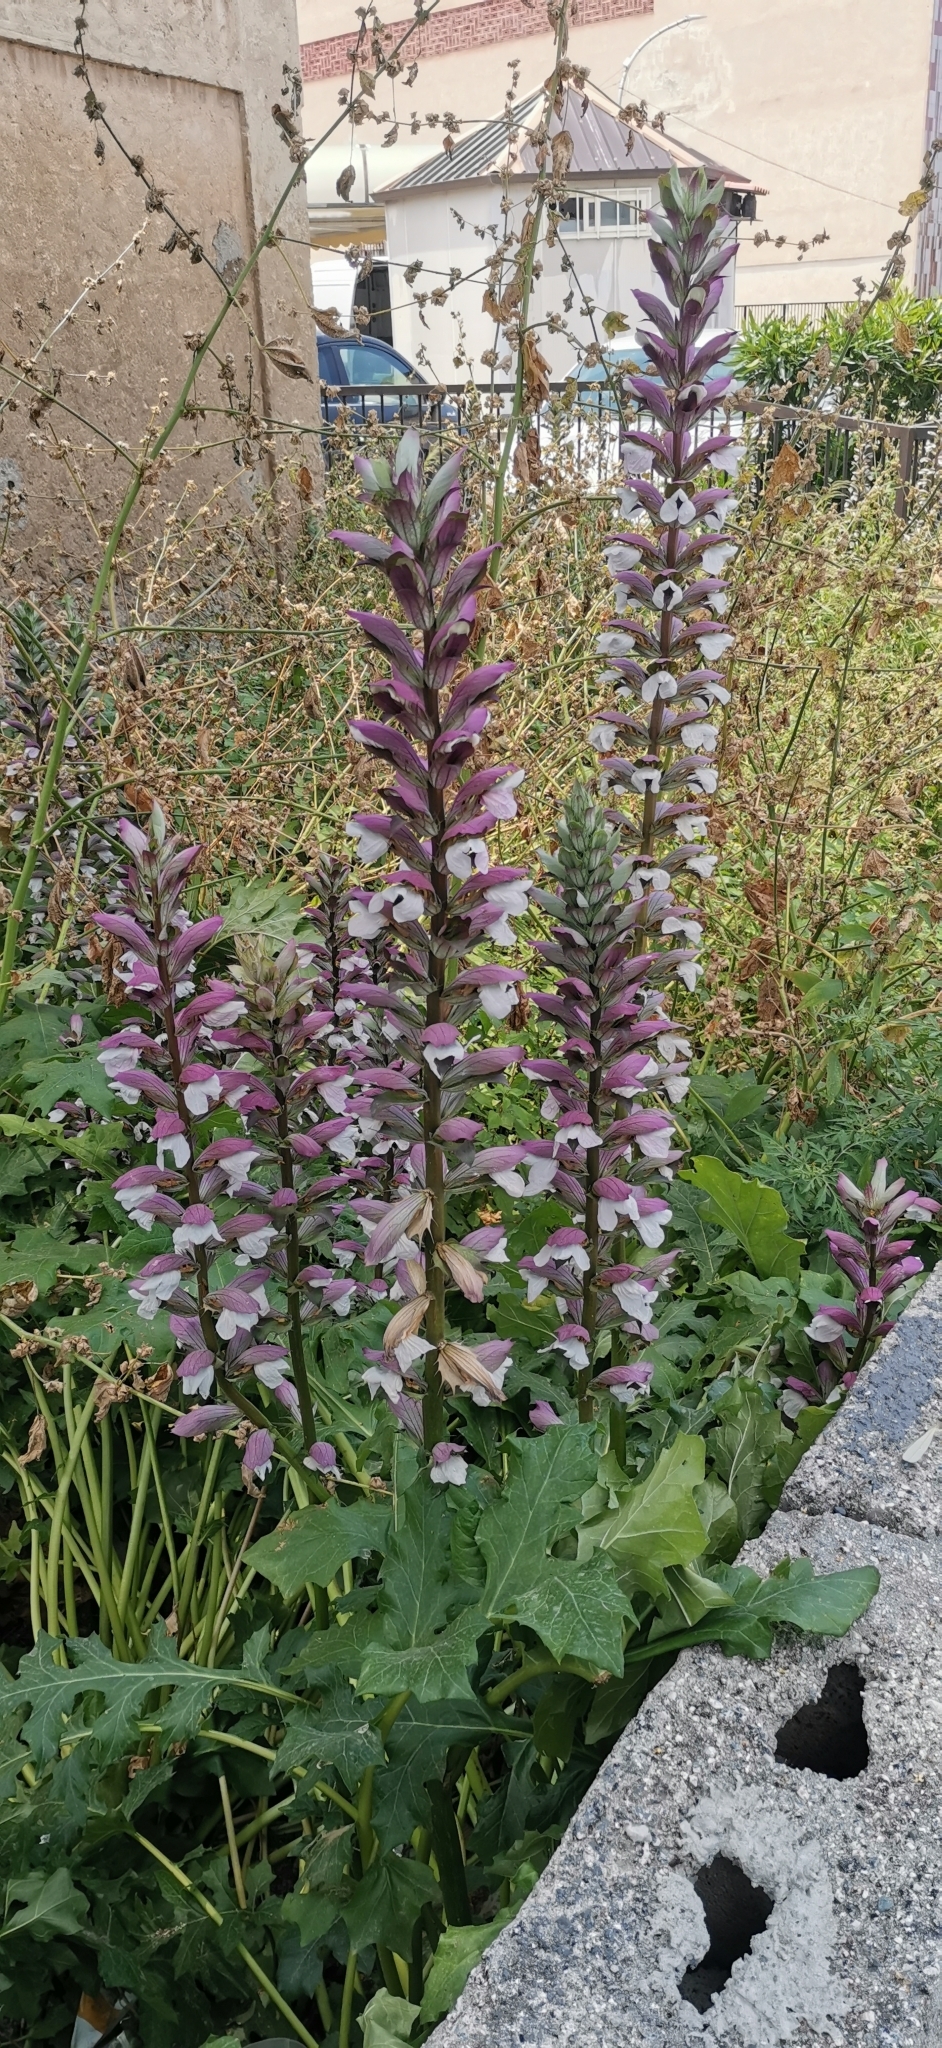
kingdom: Plantae
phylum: Tracheophyta
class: Magnoliopsida
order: Lamiales
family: Acanthaceae
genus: Acanthus
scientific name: Acanthus mollis
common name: Bear's-breech
